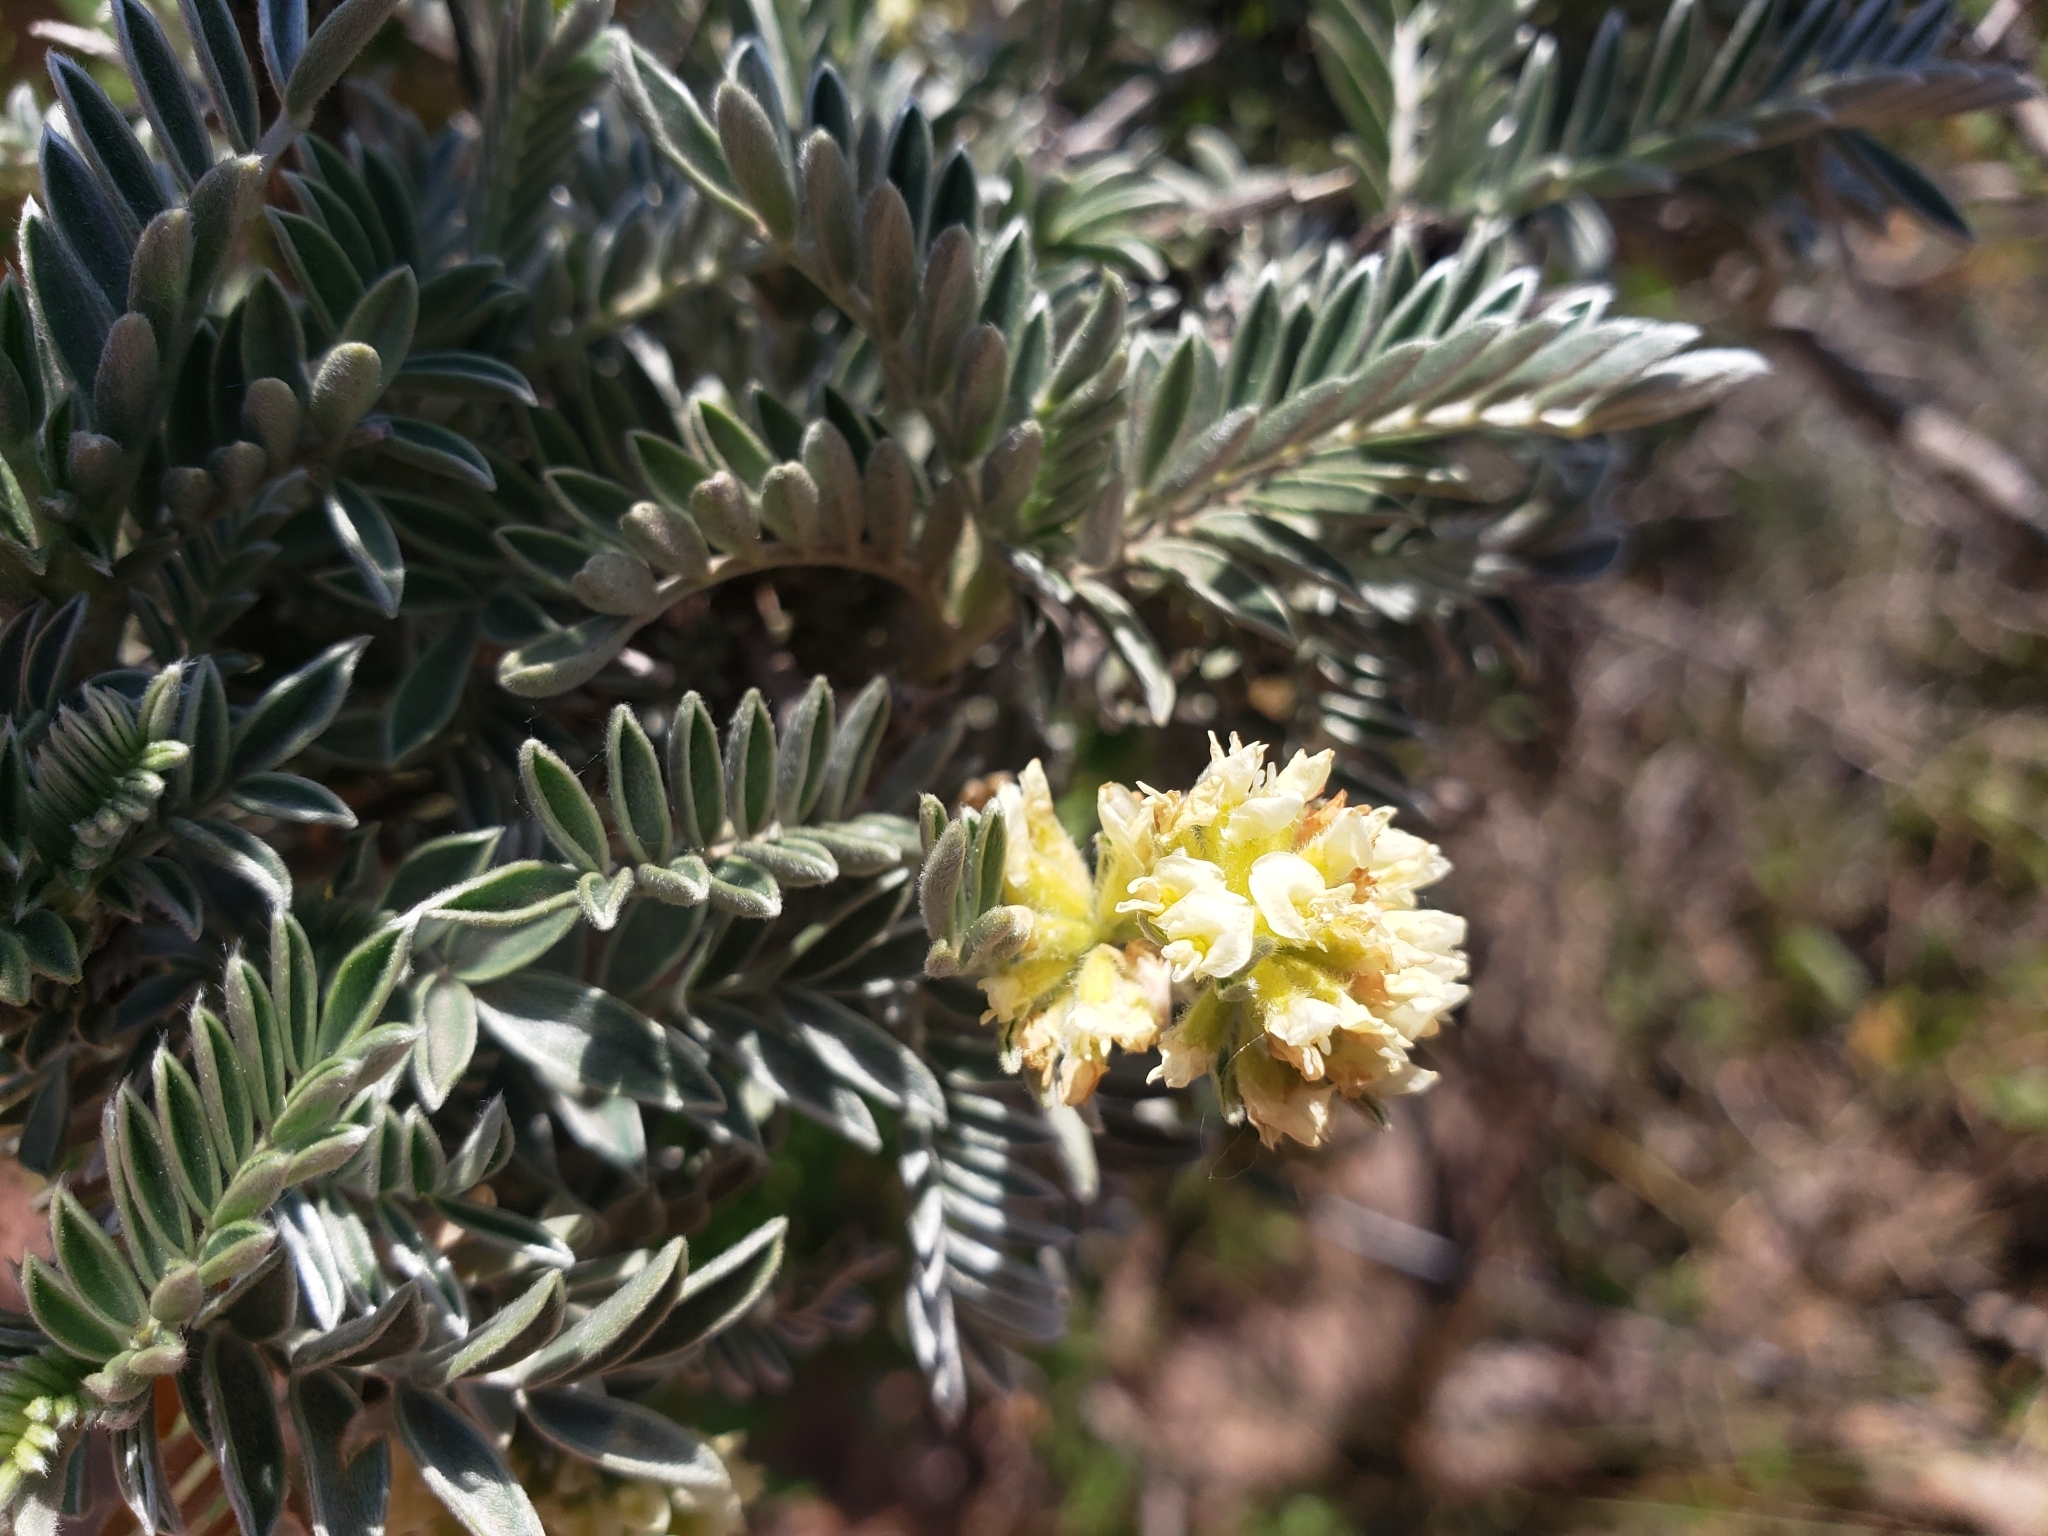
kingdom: Plantae
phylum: Tracheophyta
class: Magnoliopsida
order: Fabales
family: Fabaceae
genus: Anthyllis
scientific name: Anthyllis barba-jovis
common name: Jupiter's-beard
